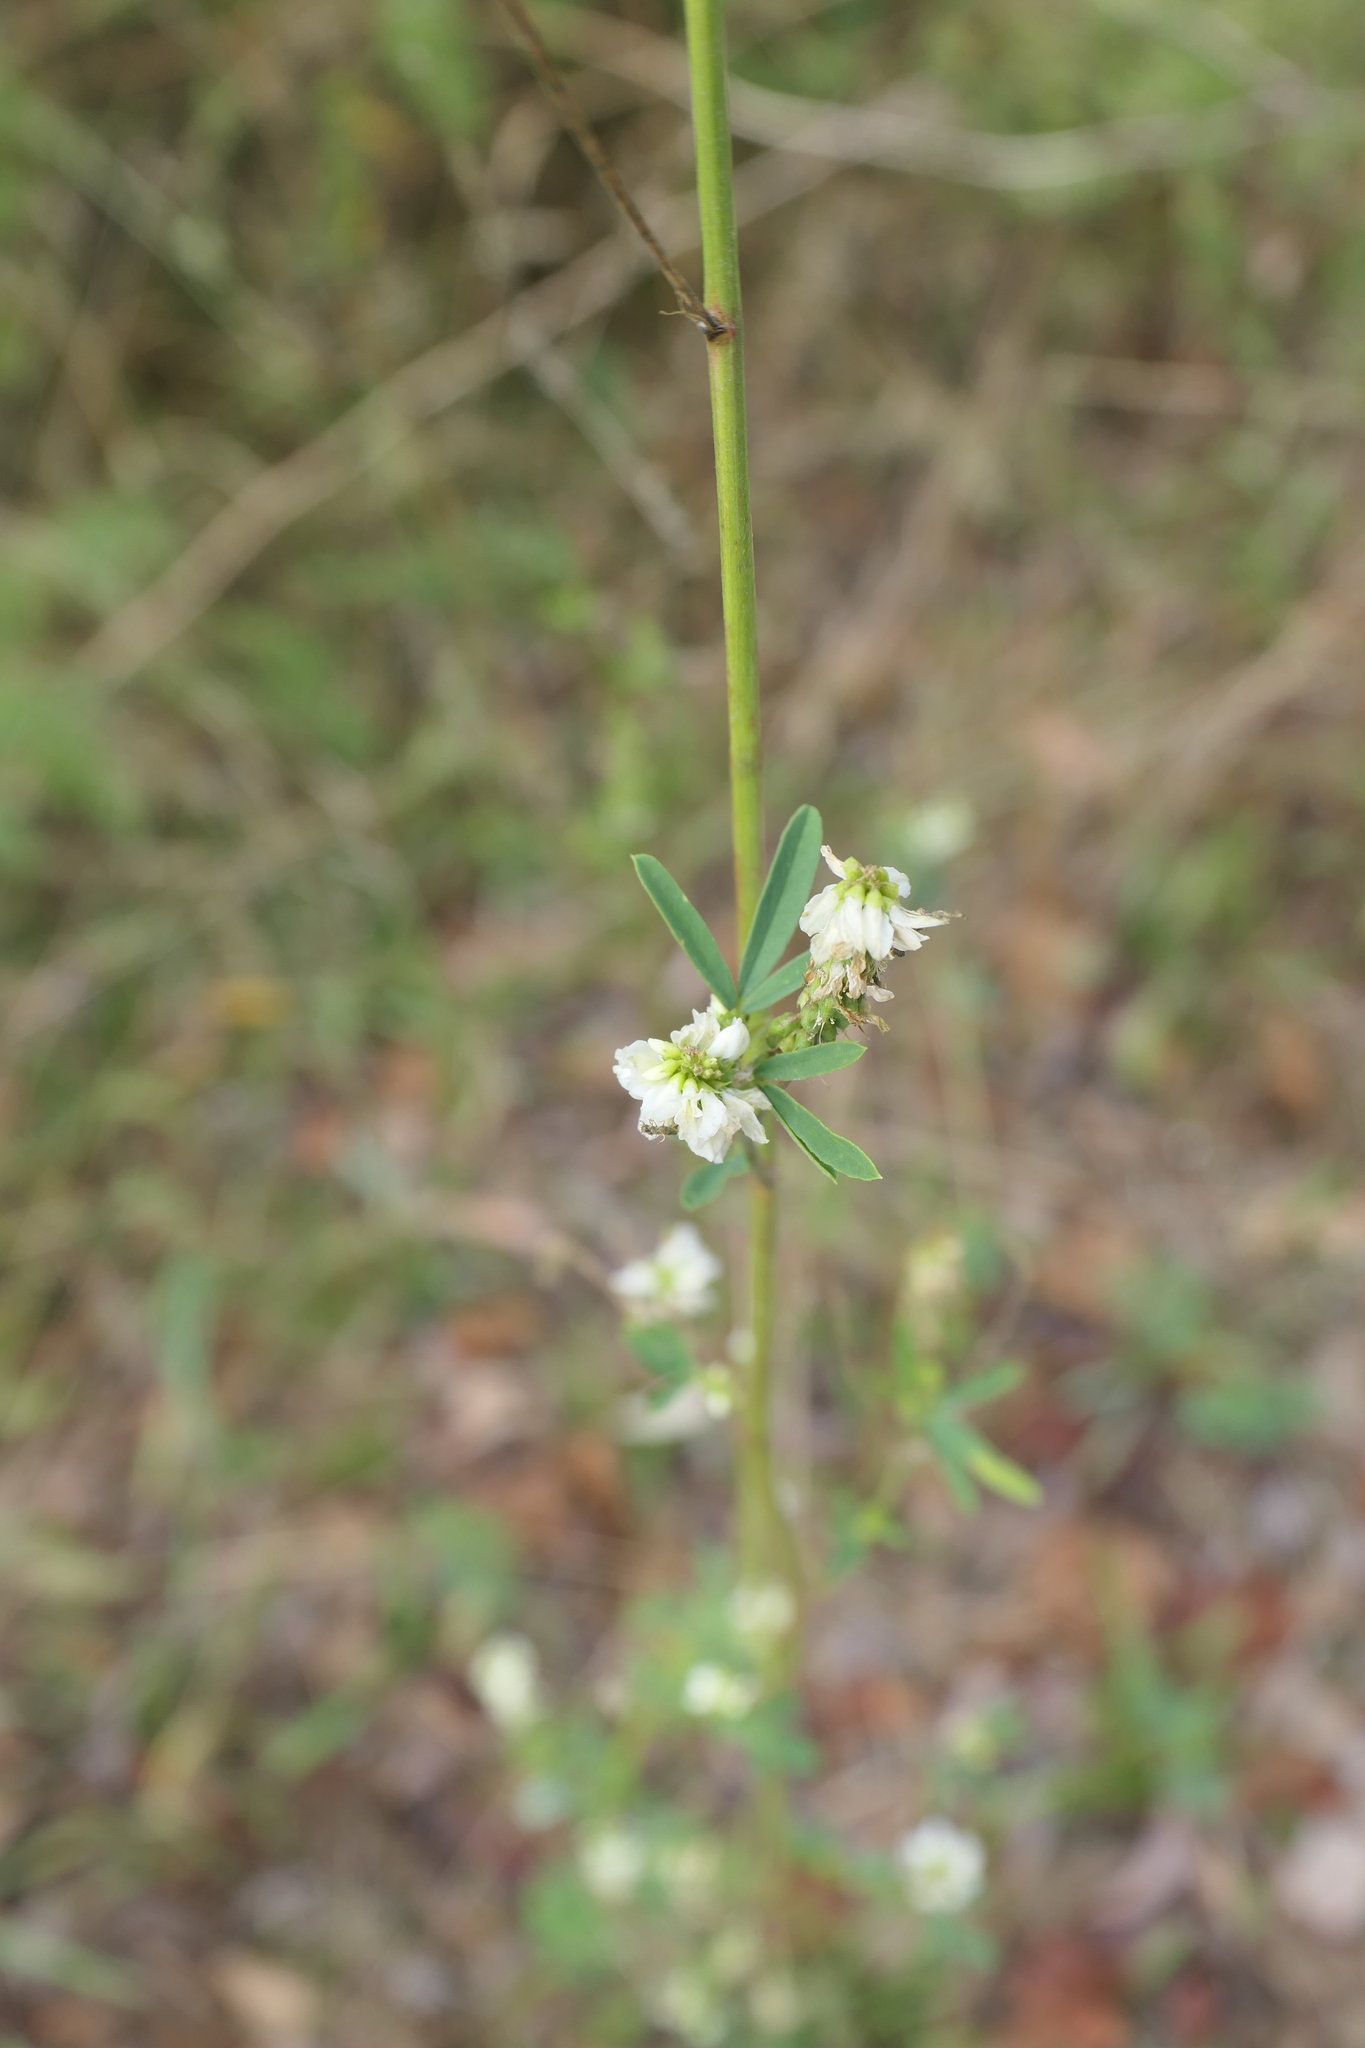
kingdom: Plantae
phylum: Tracheophyta
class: Magnoliopsida
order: Fabales
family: Fabaceae
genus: Melilotus
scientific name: Melilotus albus
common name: White melilot
